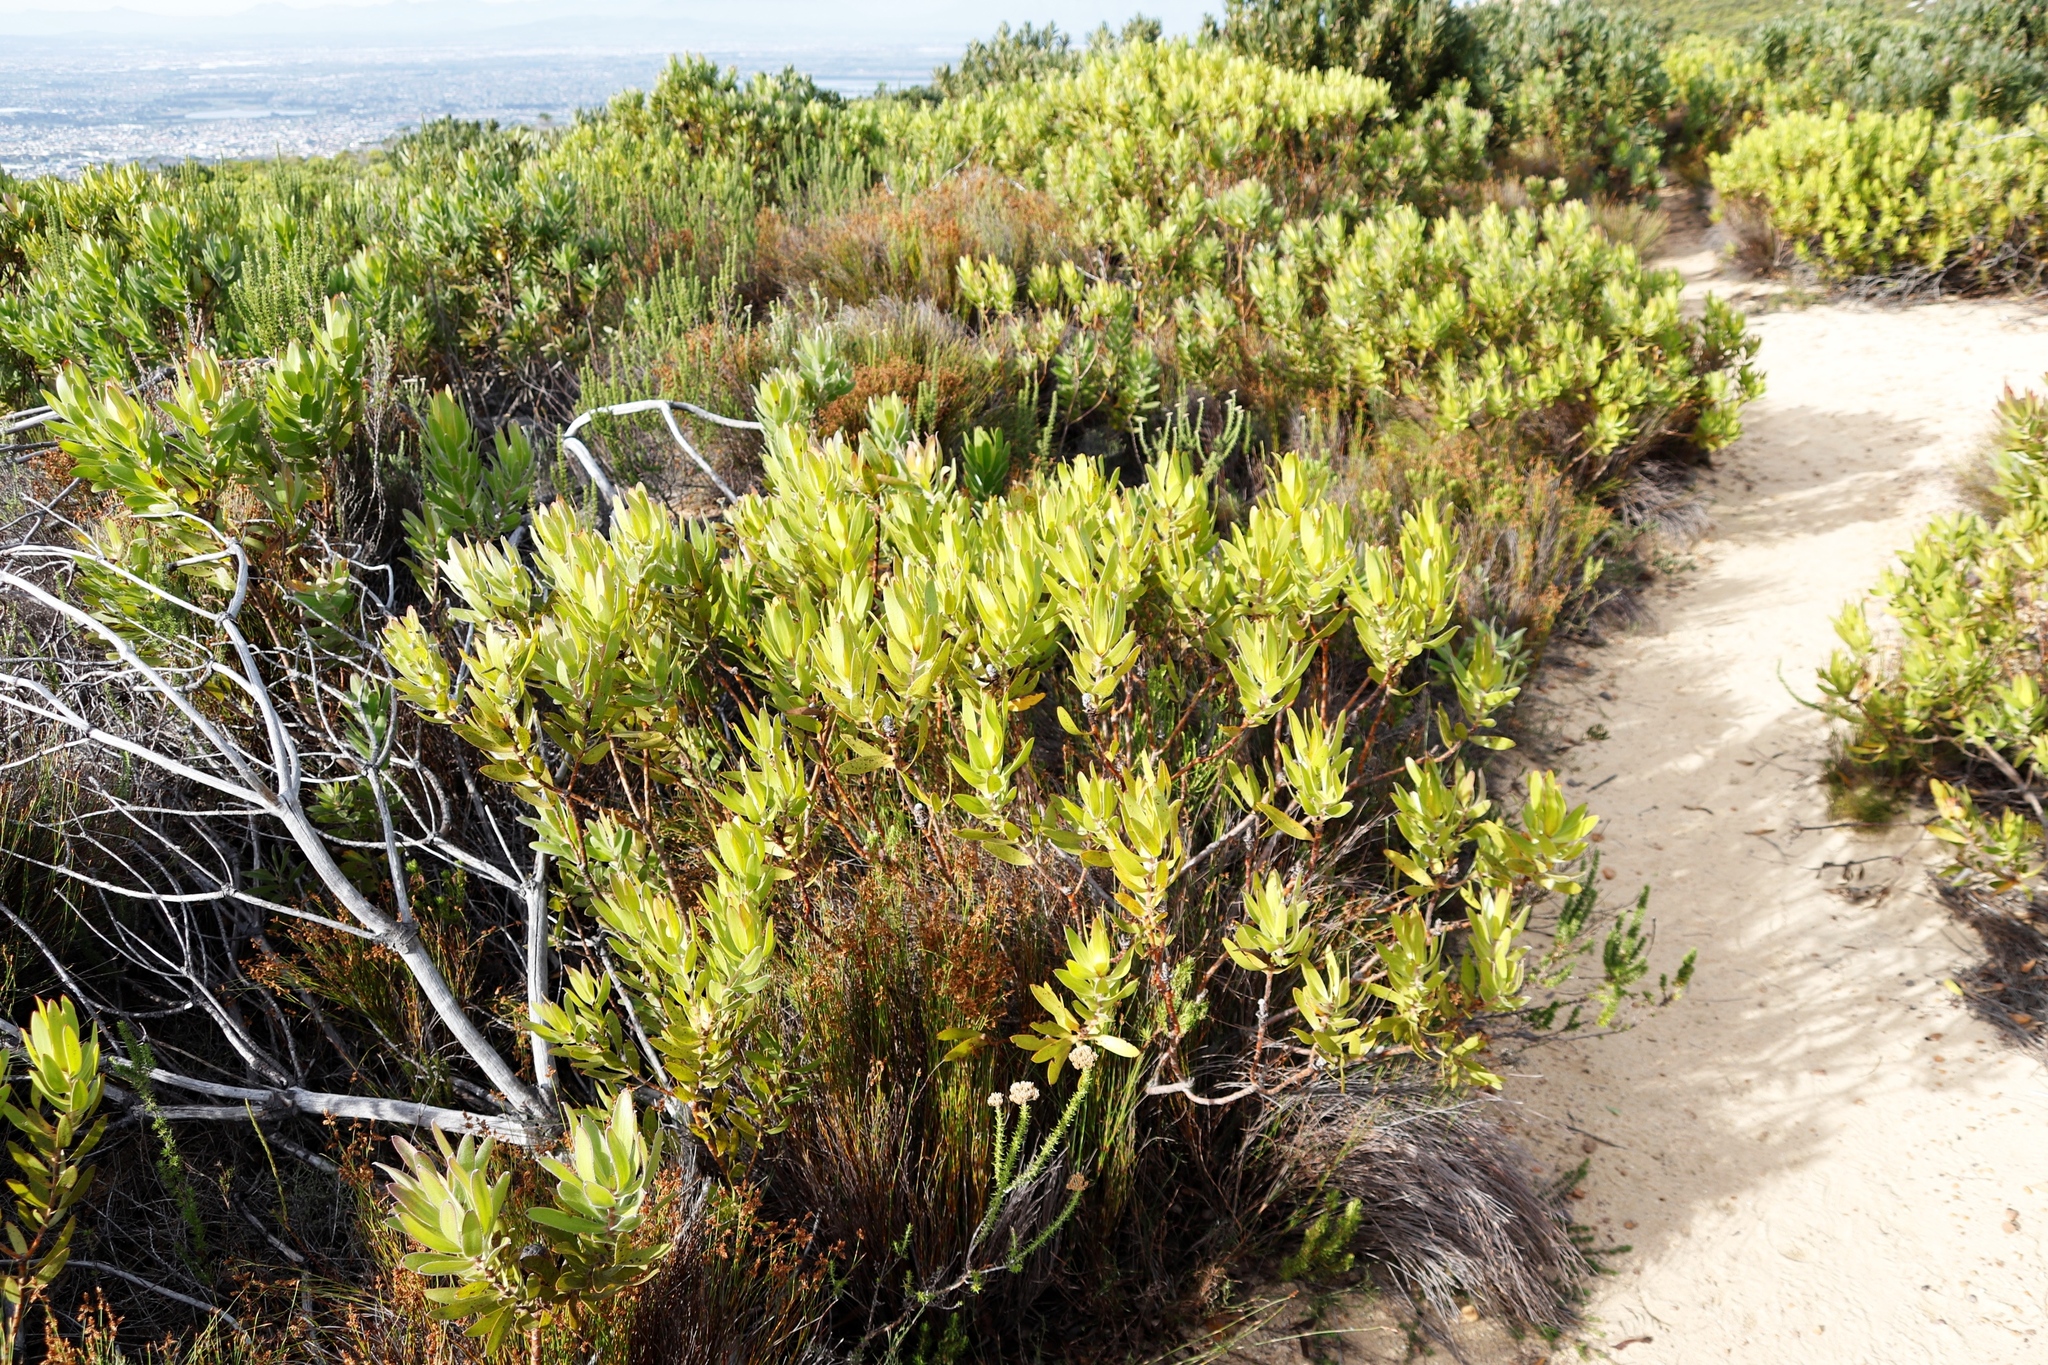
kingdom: Plantae
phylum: Tracheophyta
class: Magnoliopsida
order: Proteales
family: Proteaceae
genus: Leucadendron
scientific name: Leucadendron laureolum
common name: Golden sunshinebush
